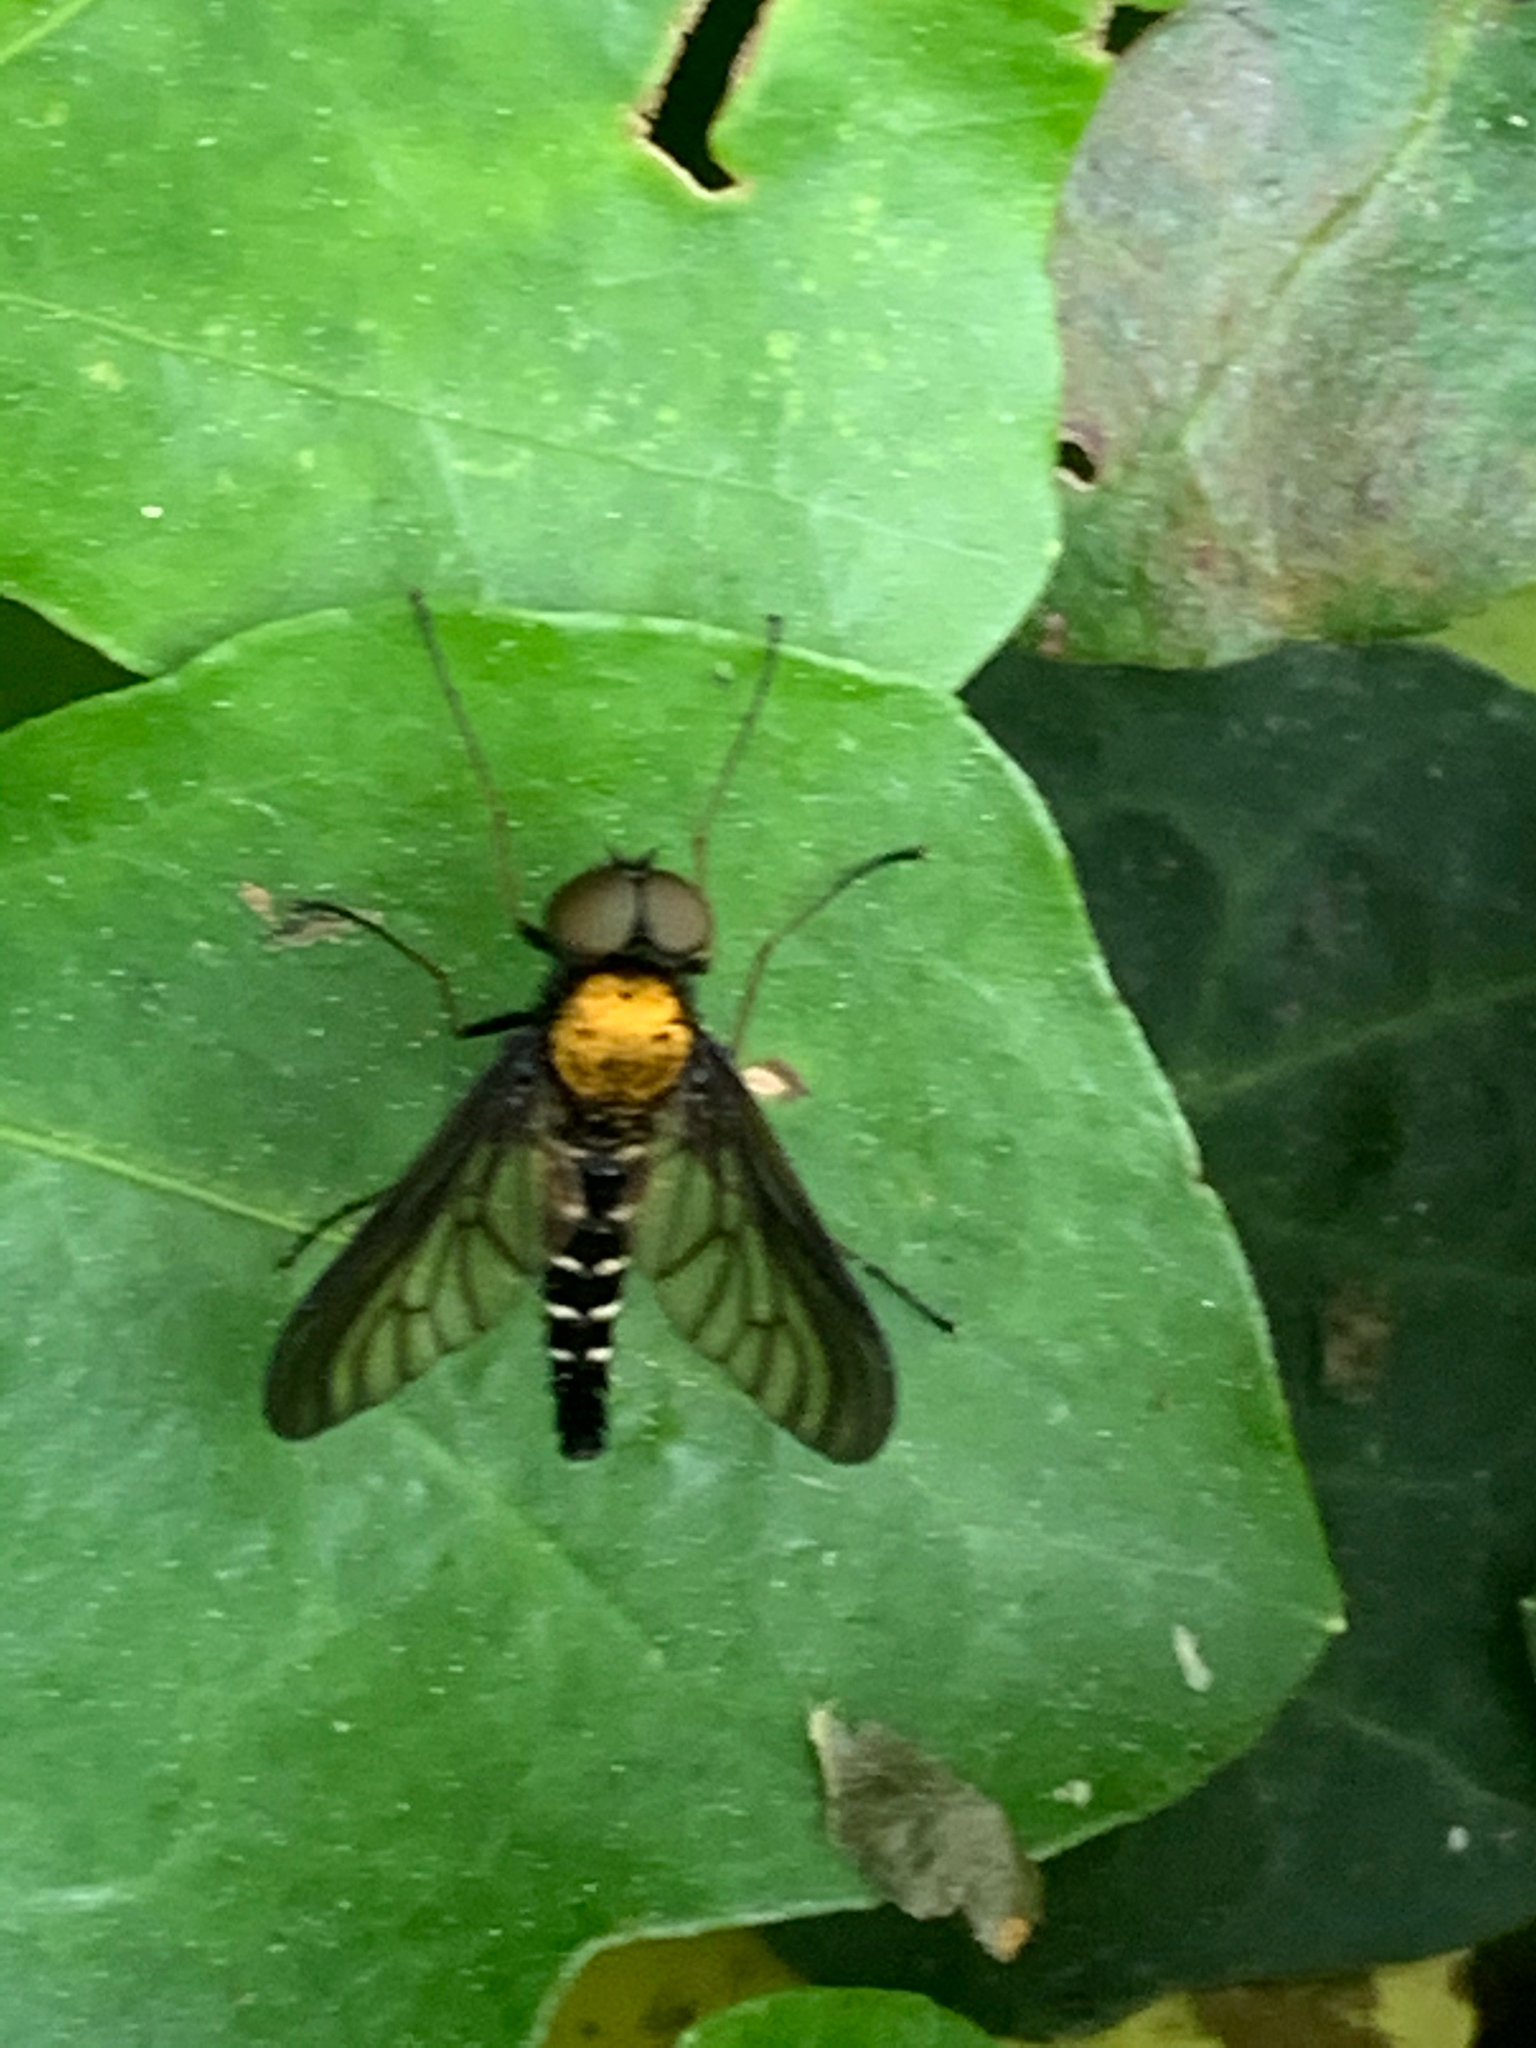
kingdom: Animalia
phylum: Arthropoda
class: Insecta
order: Diptera
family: Rhagionidae
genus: Chrysopilus
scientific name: Chrysopilus thoracicus
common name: Golden-backed snipe fly
